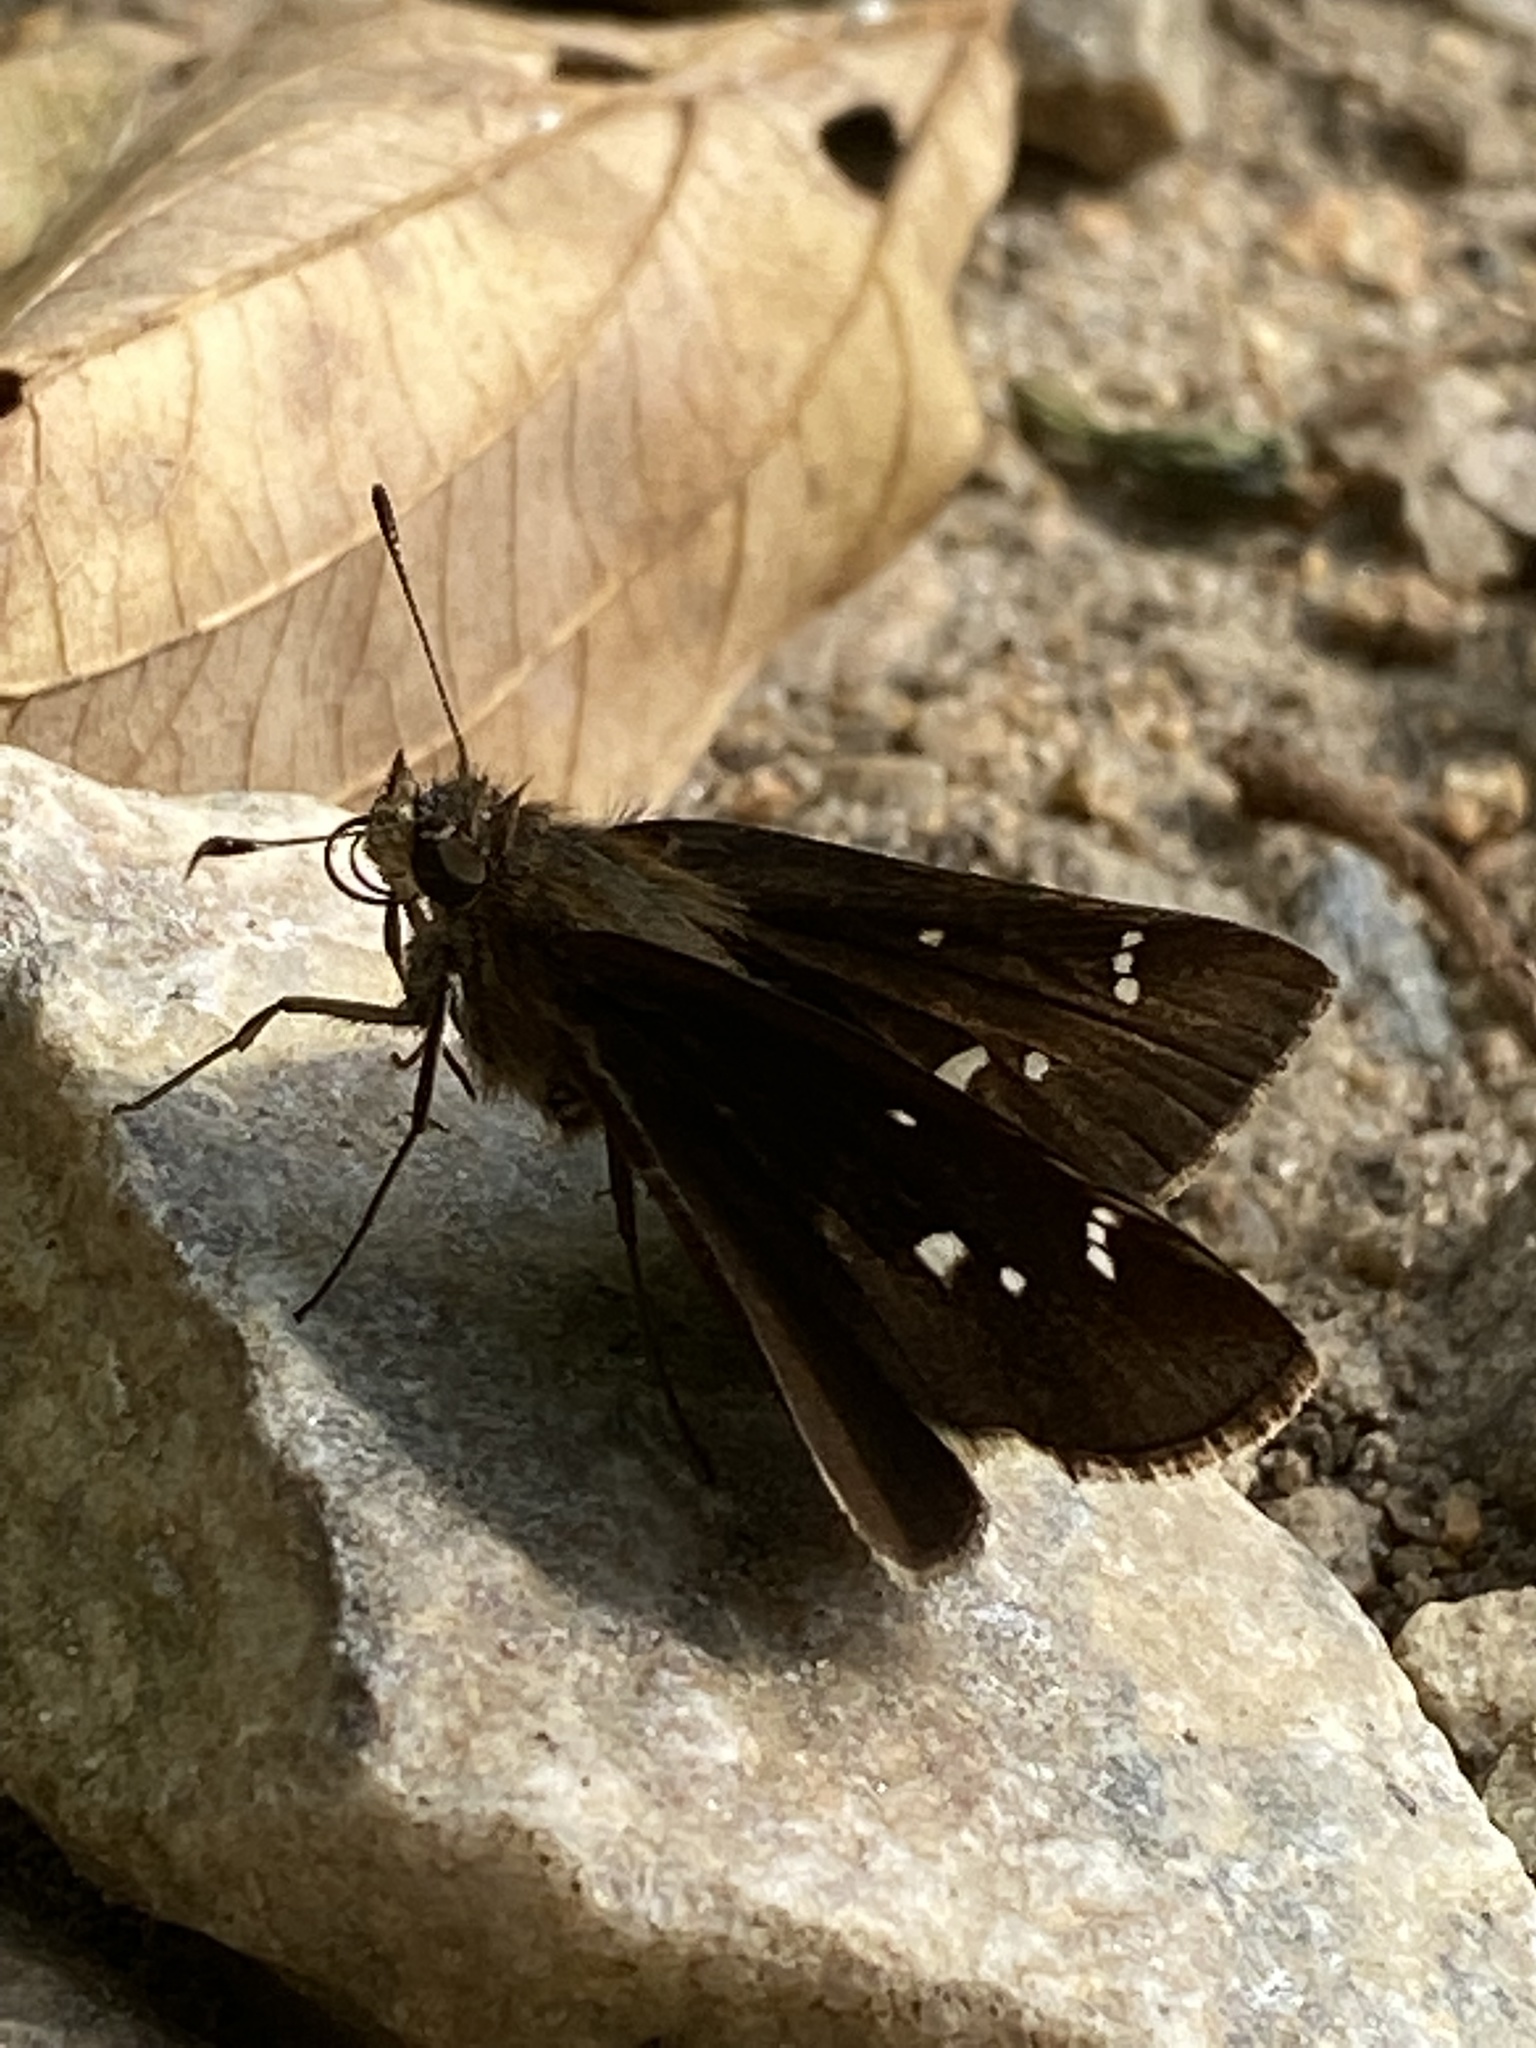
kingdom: Animalia
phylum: Arthropoda
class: Insecta
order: Lepidoptera
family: Hesperiidae
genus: Lerema
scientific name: Lerema accius
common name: Clouded skipper
